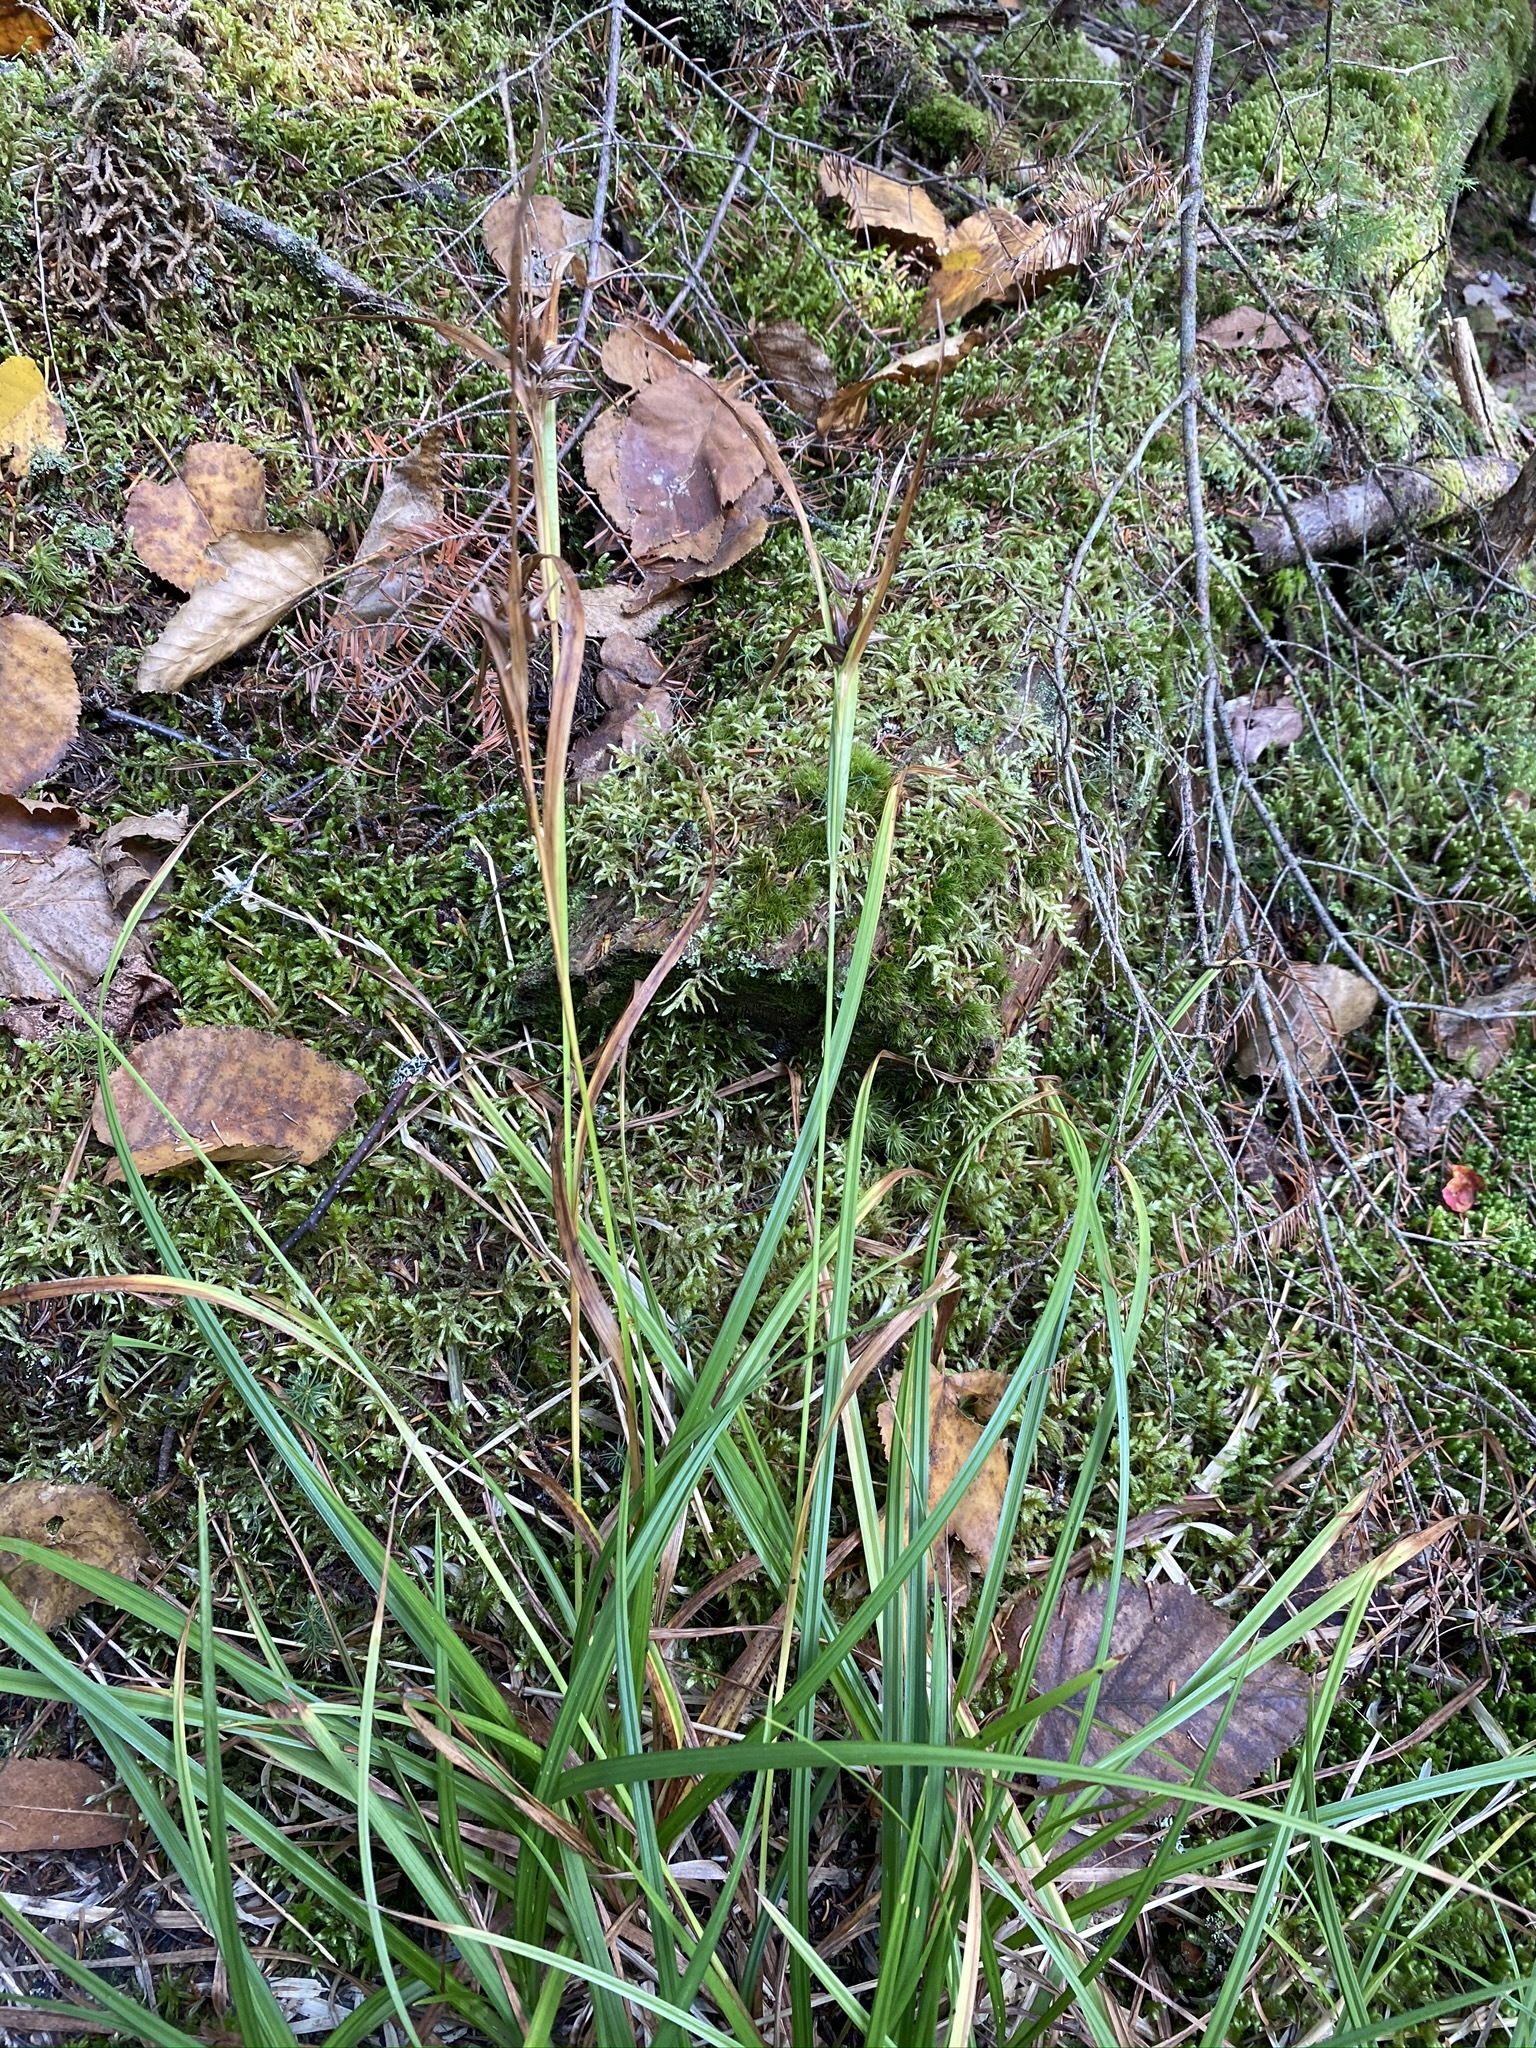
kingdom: Plantae
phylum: Tracheophyta
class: Liliopsida
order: Poales
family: Cyperaceae
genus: Carex
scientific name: Carex intumescens
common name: Greater bladder sedge
